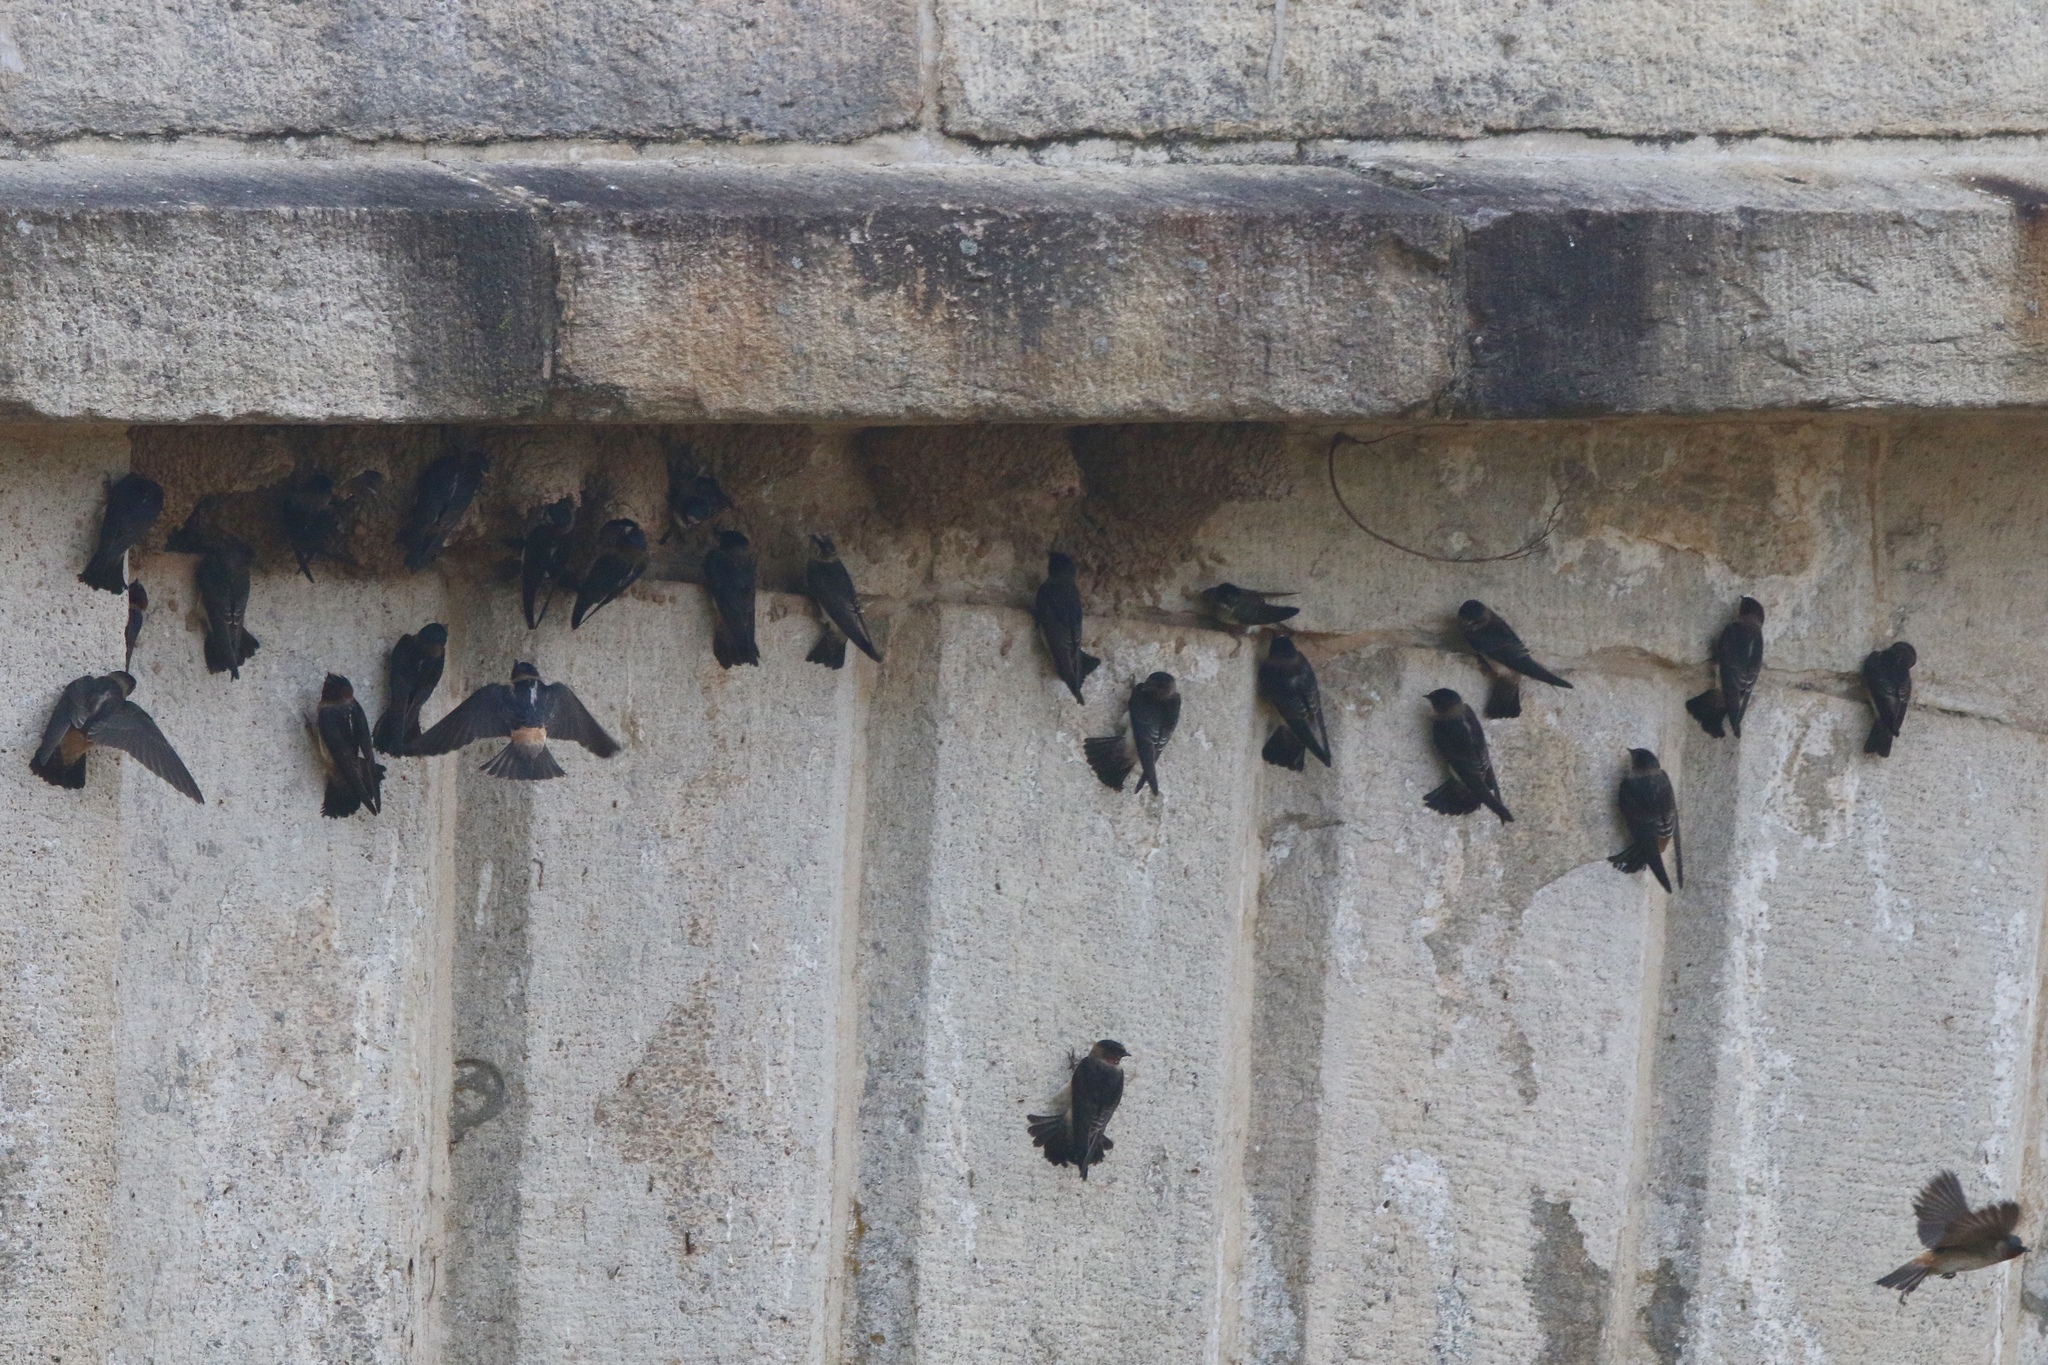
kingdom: Animalia
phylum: Chordata
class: Aves
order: Passeriformes
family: Hirundinidae
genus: Petrochelidon
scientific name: Petrochelidon pyrrhonota
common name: American cliff swallow
